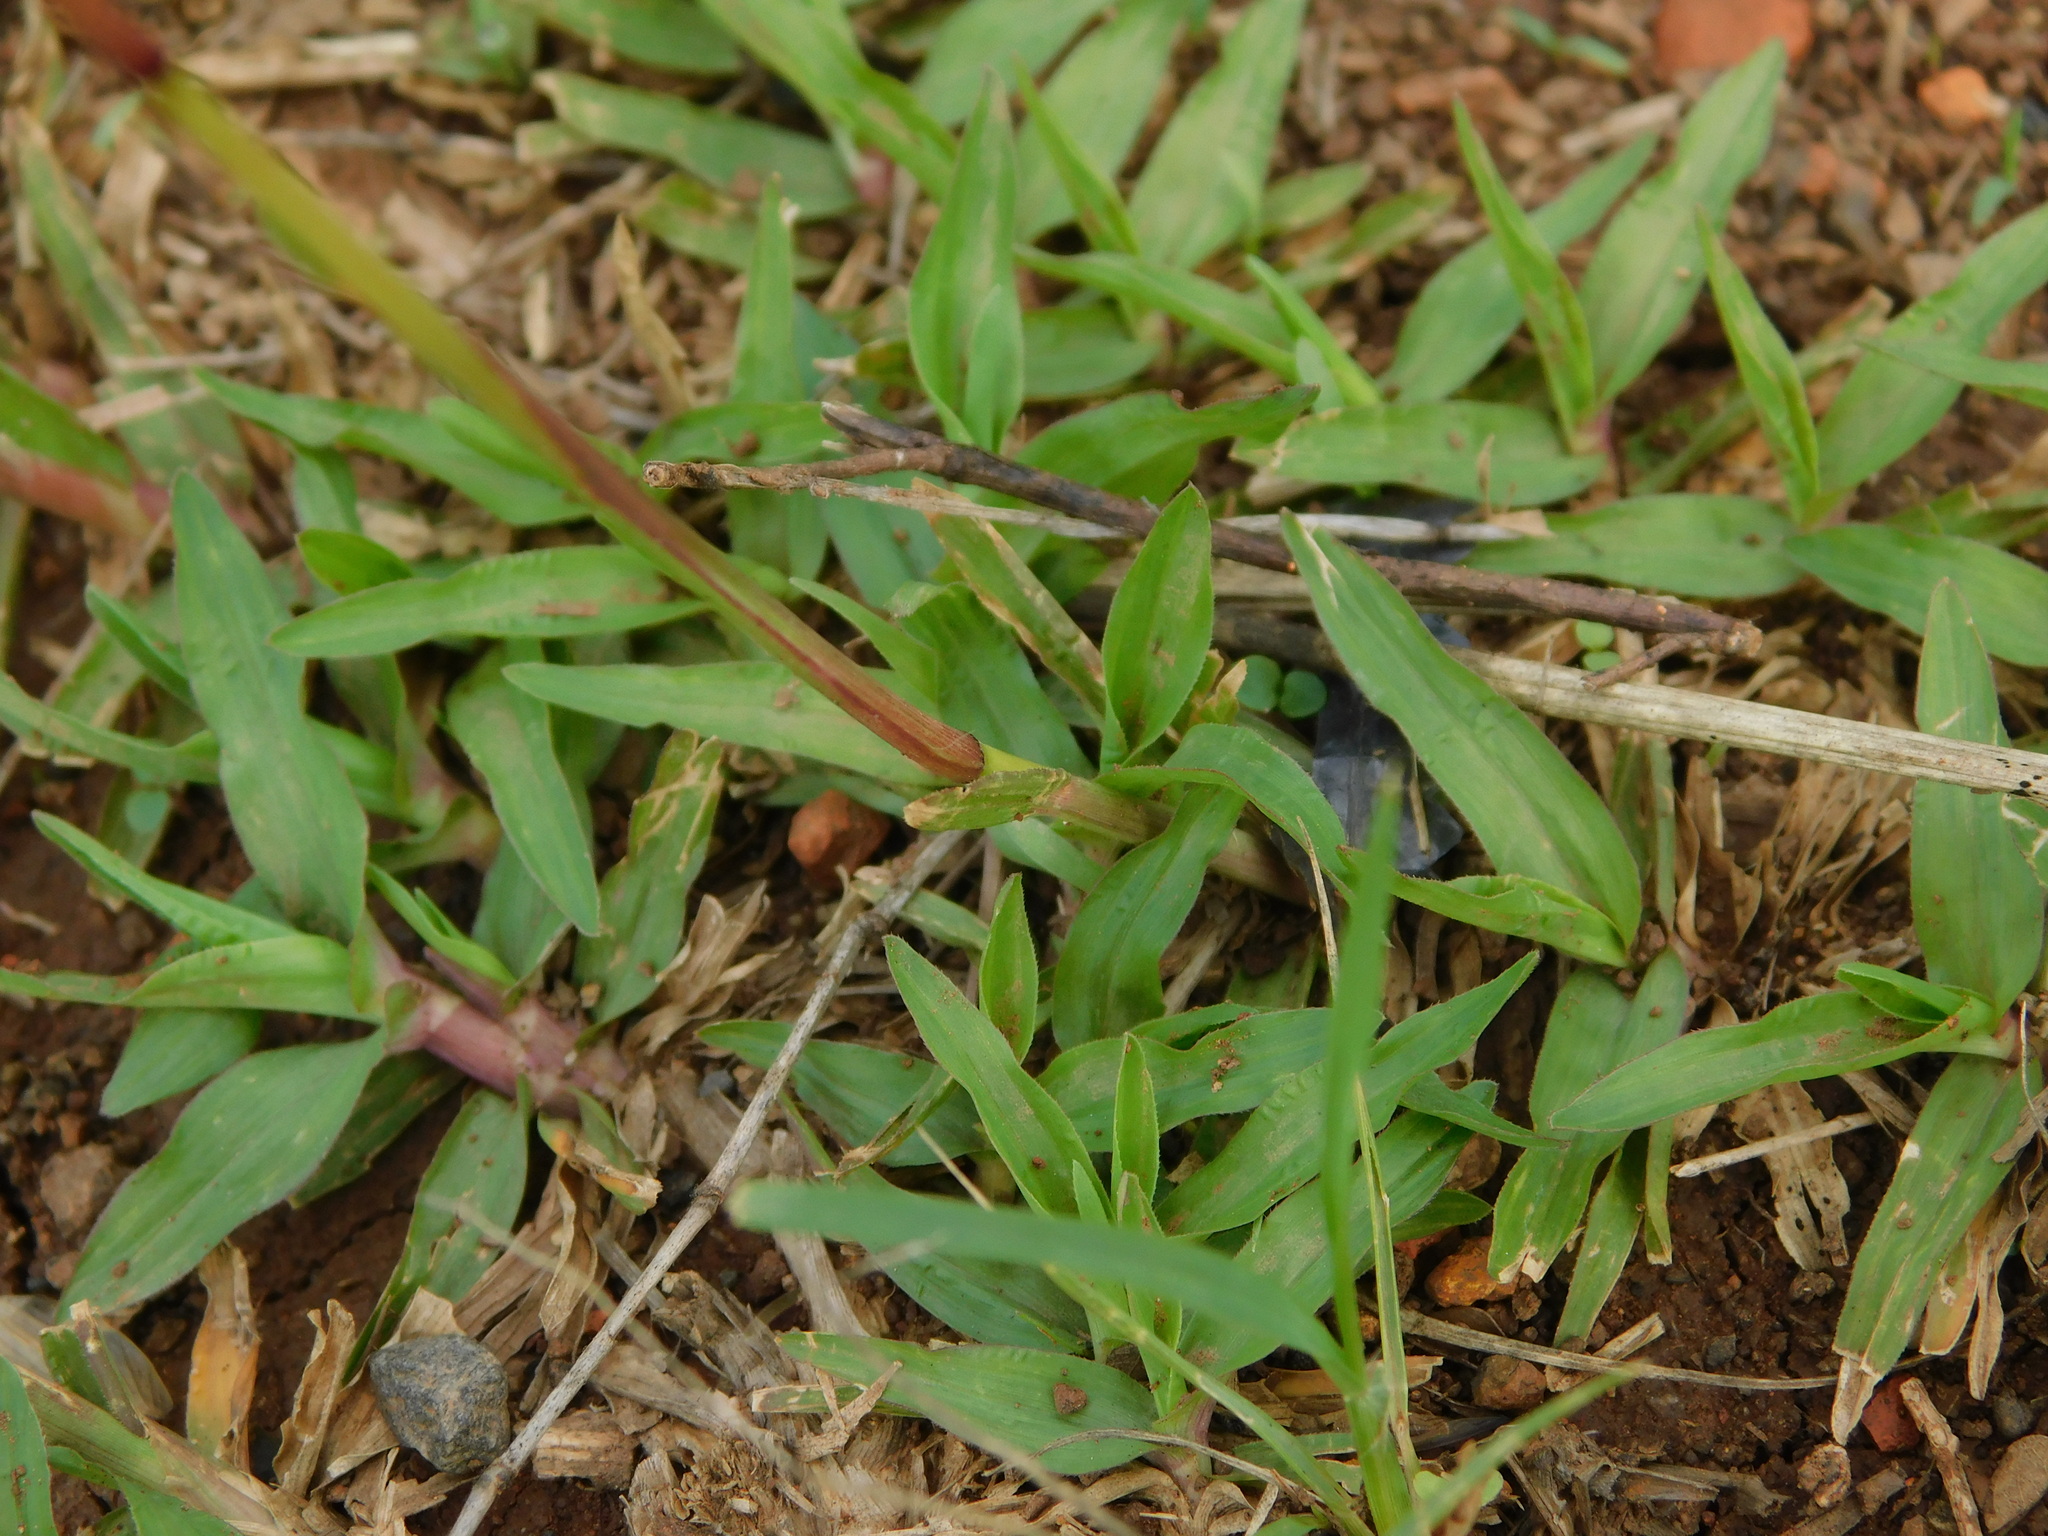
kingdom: Plantae
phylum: Tracheophyta
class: Liliopsida
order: Poales
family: Poaceae
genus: Chrysopogon
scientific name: Chrysopogon aciculatus
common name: Pilipiliula
